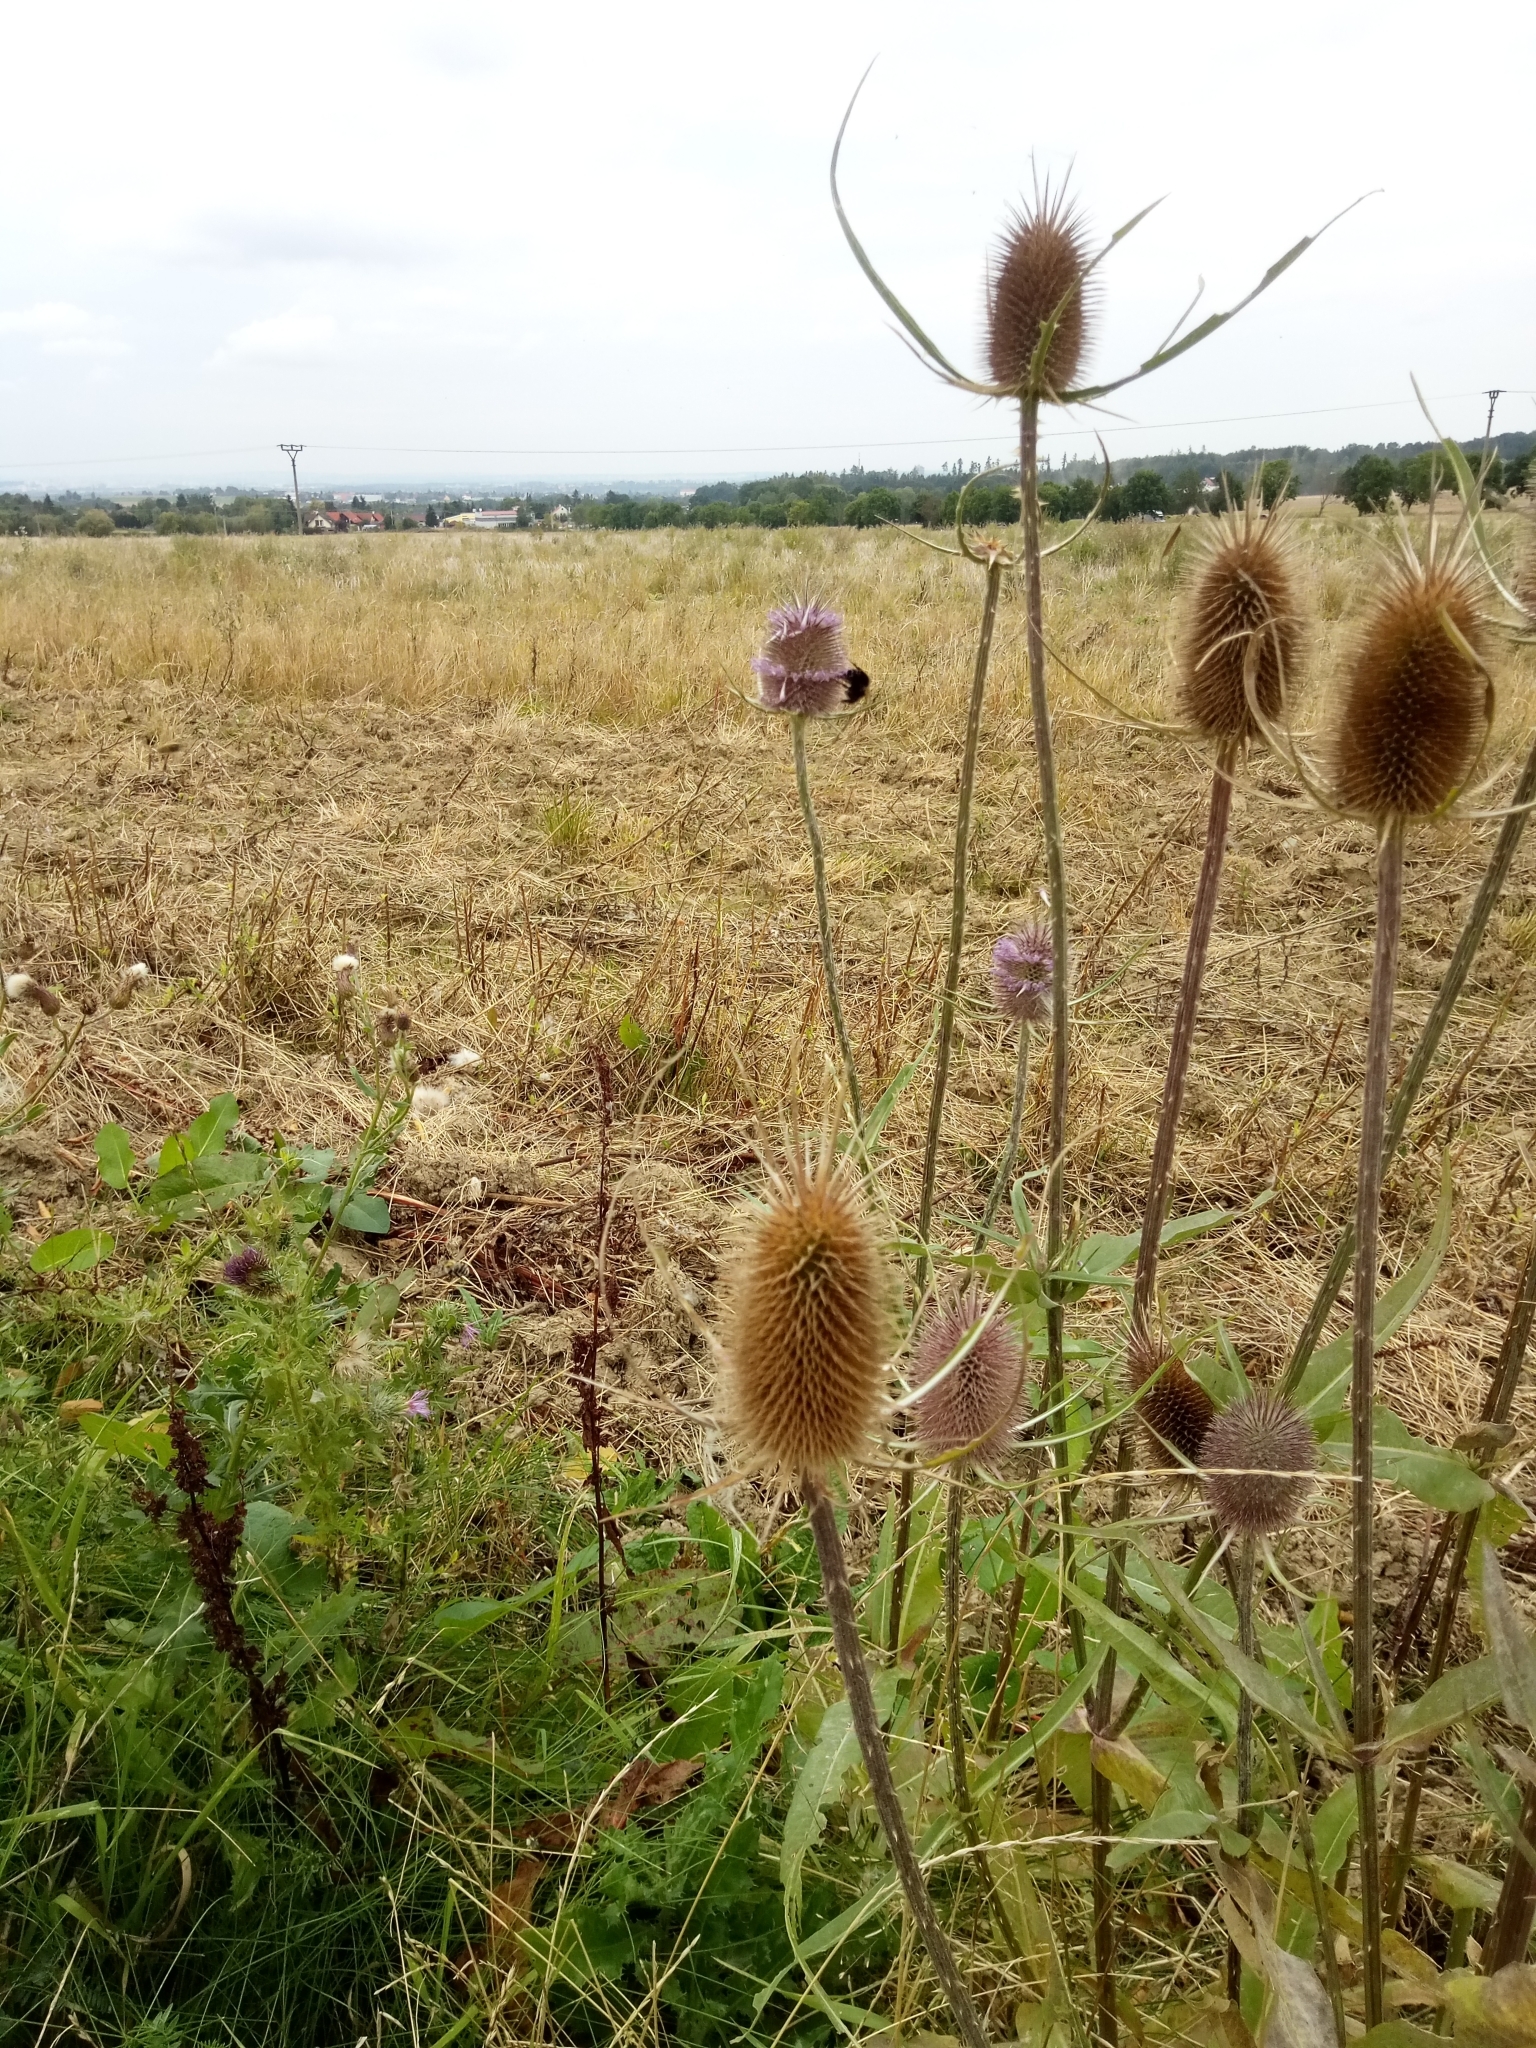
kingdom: Plantae
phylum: Tracheophyta
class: Magnoliopsida
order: Dipsacales
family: Caprifoliaceae
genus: Dipsacus
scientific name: Dipsacus fullonum
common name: Teasel
